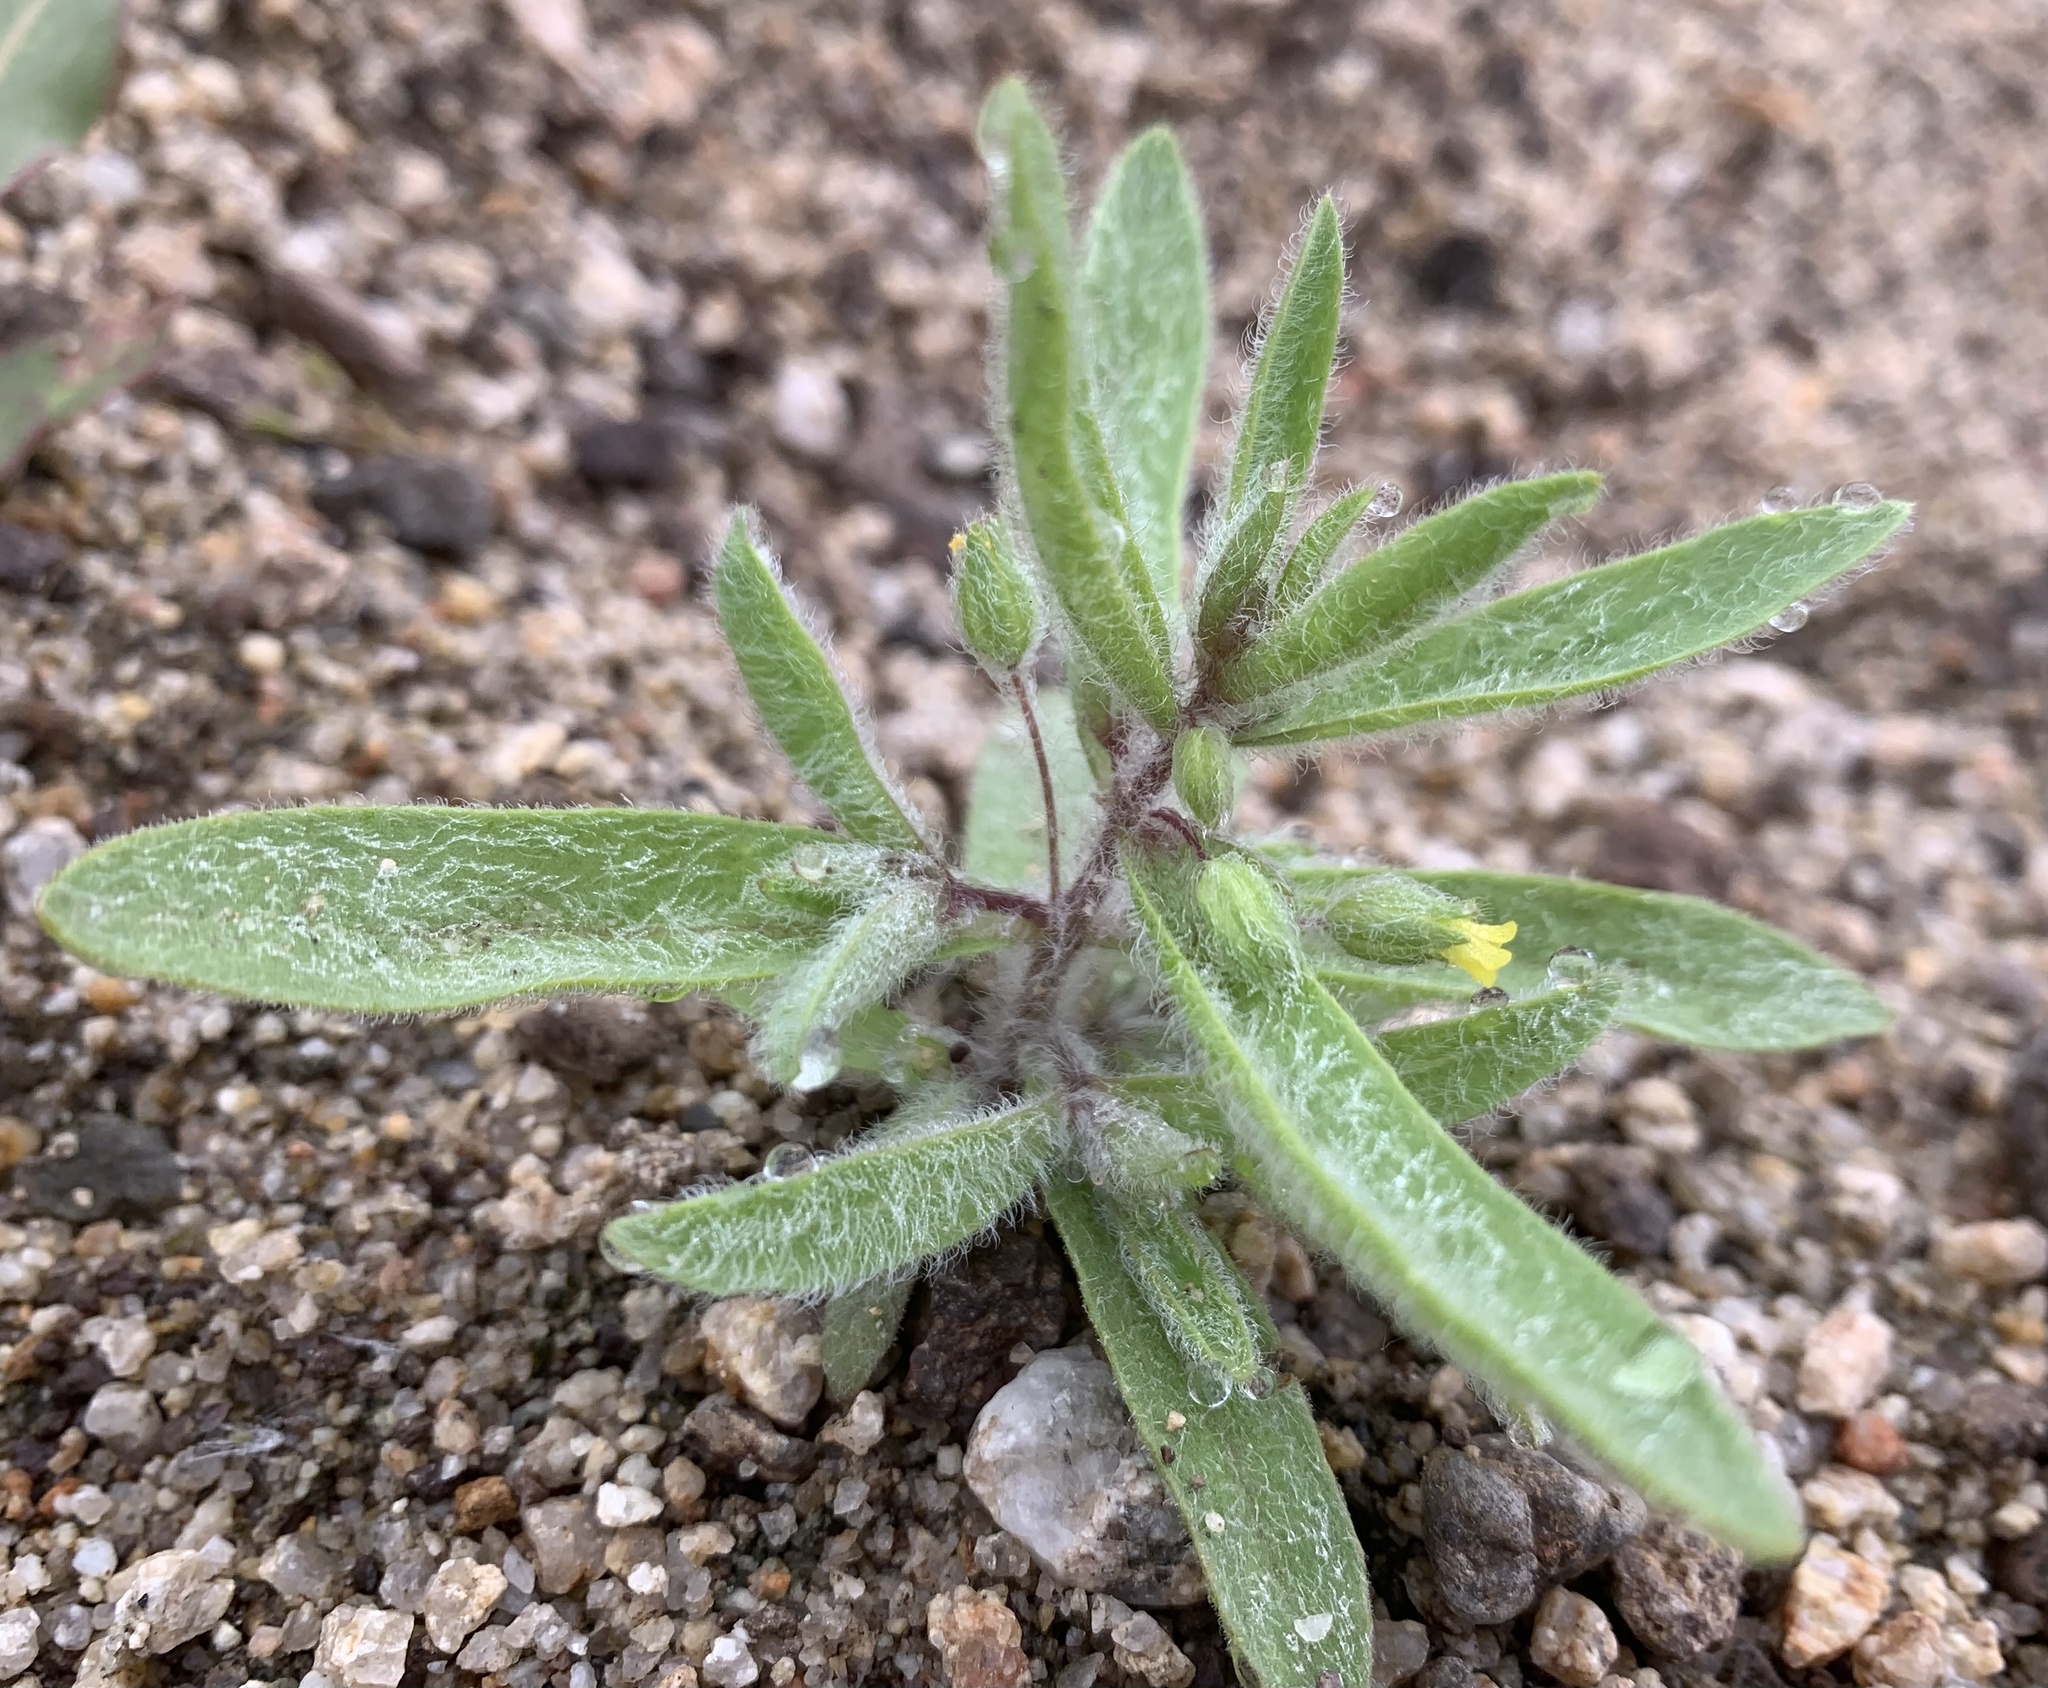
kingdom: Plantae
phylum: Tracheophyta
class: Magnoliopsida
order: Lamiales
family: Phrymaceae
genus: Mimetanthe
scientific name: Mimetanthe pilosa
